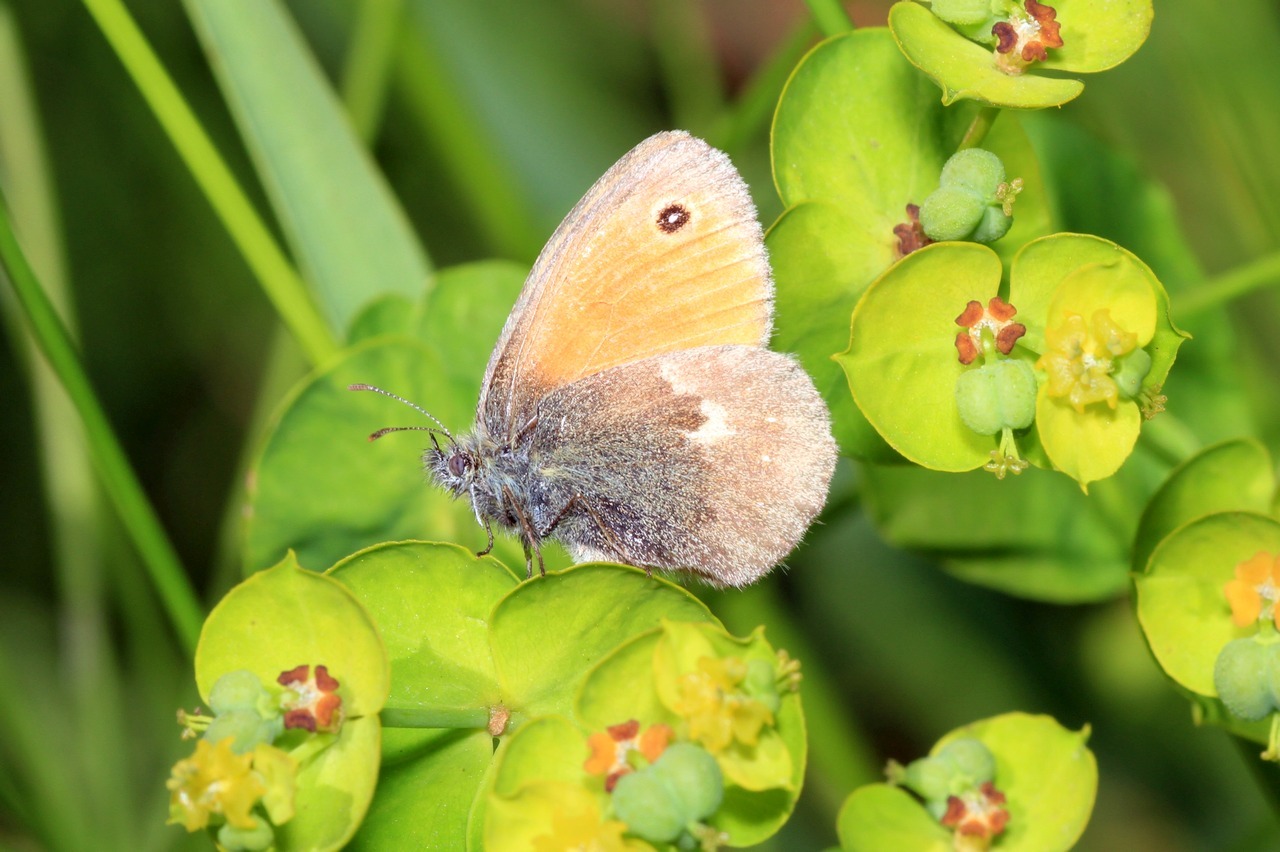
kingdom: Animalia
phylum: Arthropoda
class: Insecta
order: Lepidoptera
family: Nymphalidae
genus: Coenonympha
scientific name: Coenonympha pamphilus
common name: Small heath
